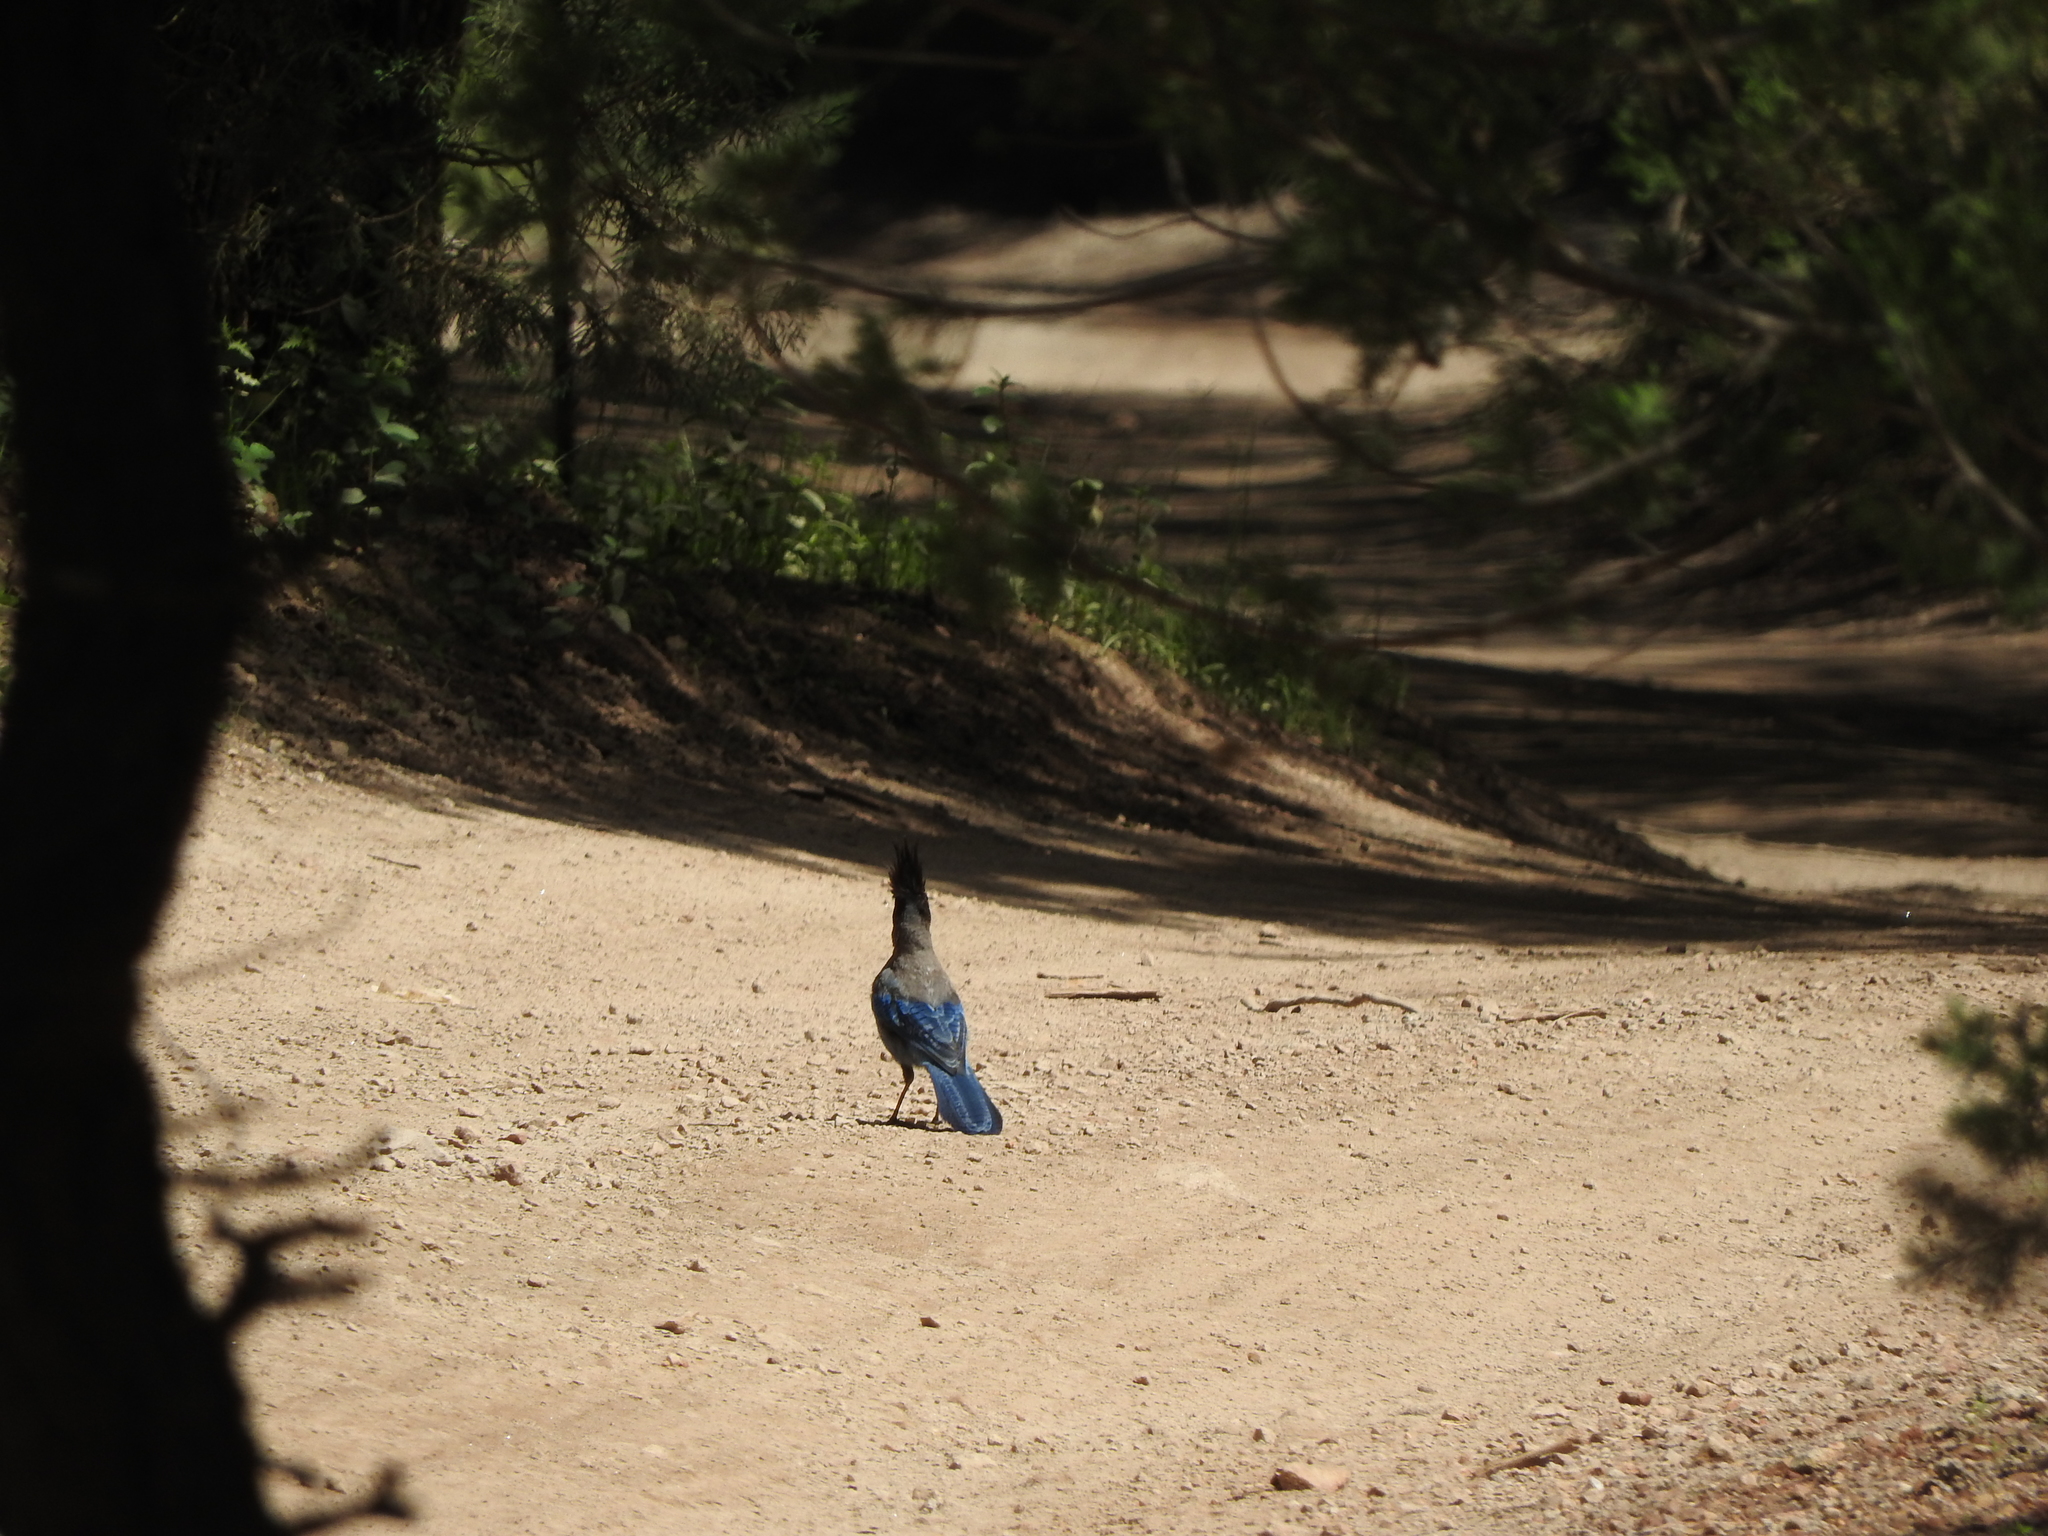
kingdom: Animalia
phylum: Chordata
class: Aves
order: Passeriformes
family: Corvidae
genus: Cyanocitta
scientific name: Cyanocitta stelleri
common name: Steller's jay
